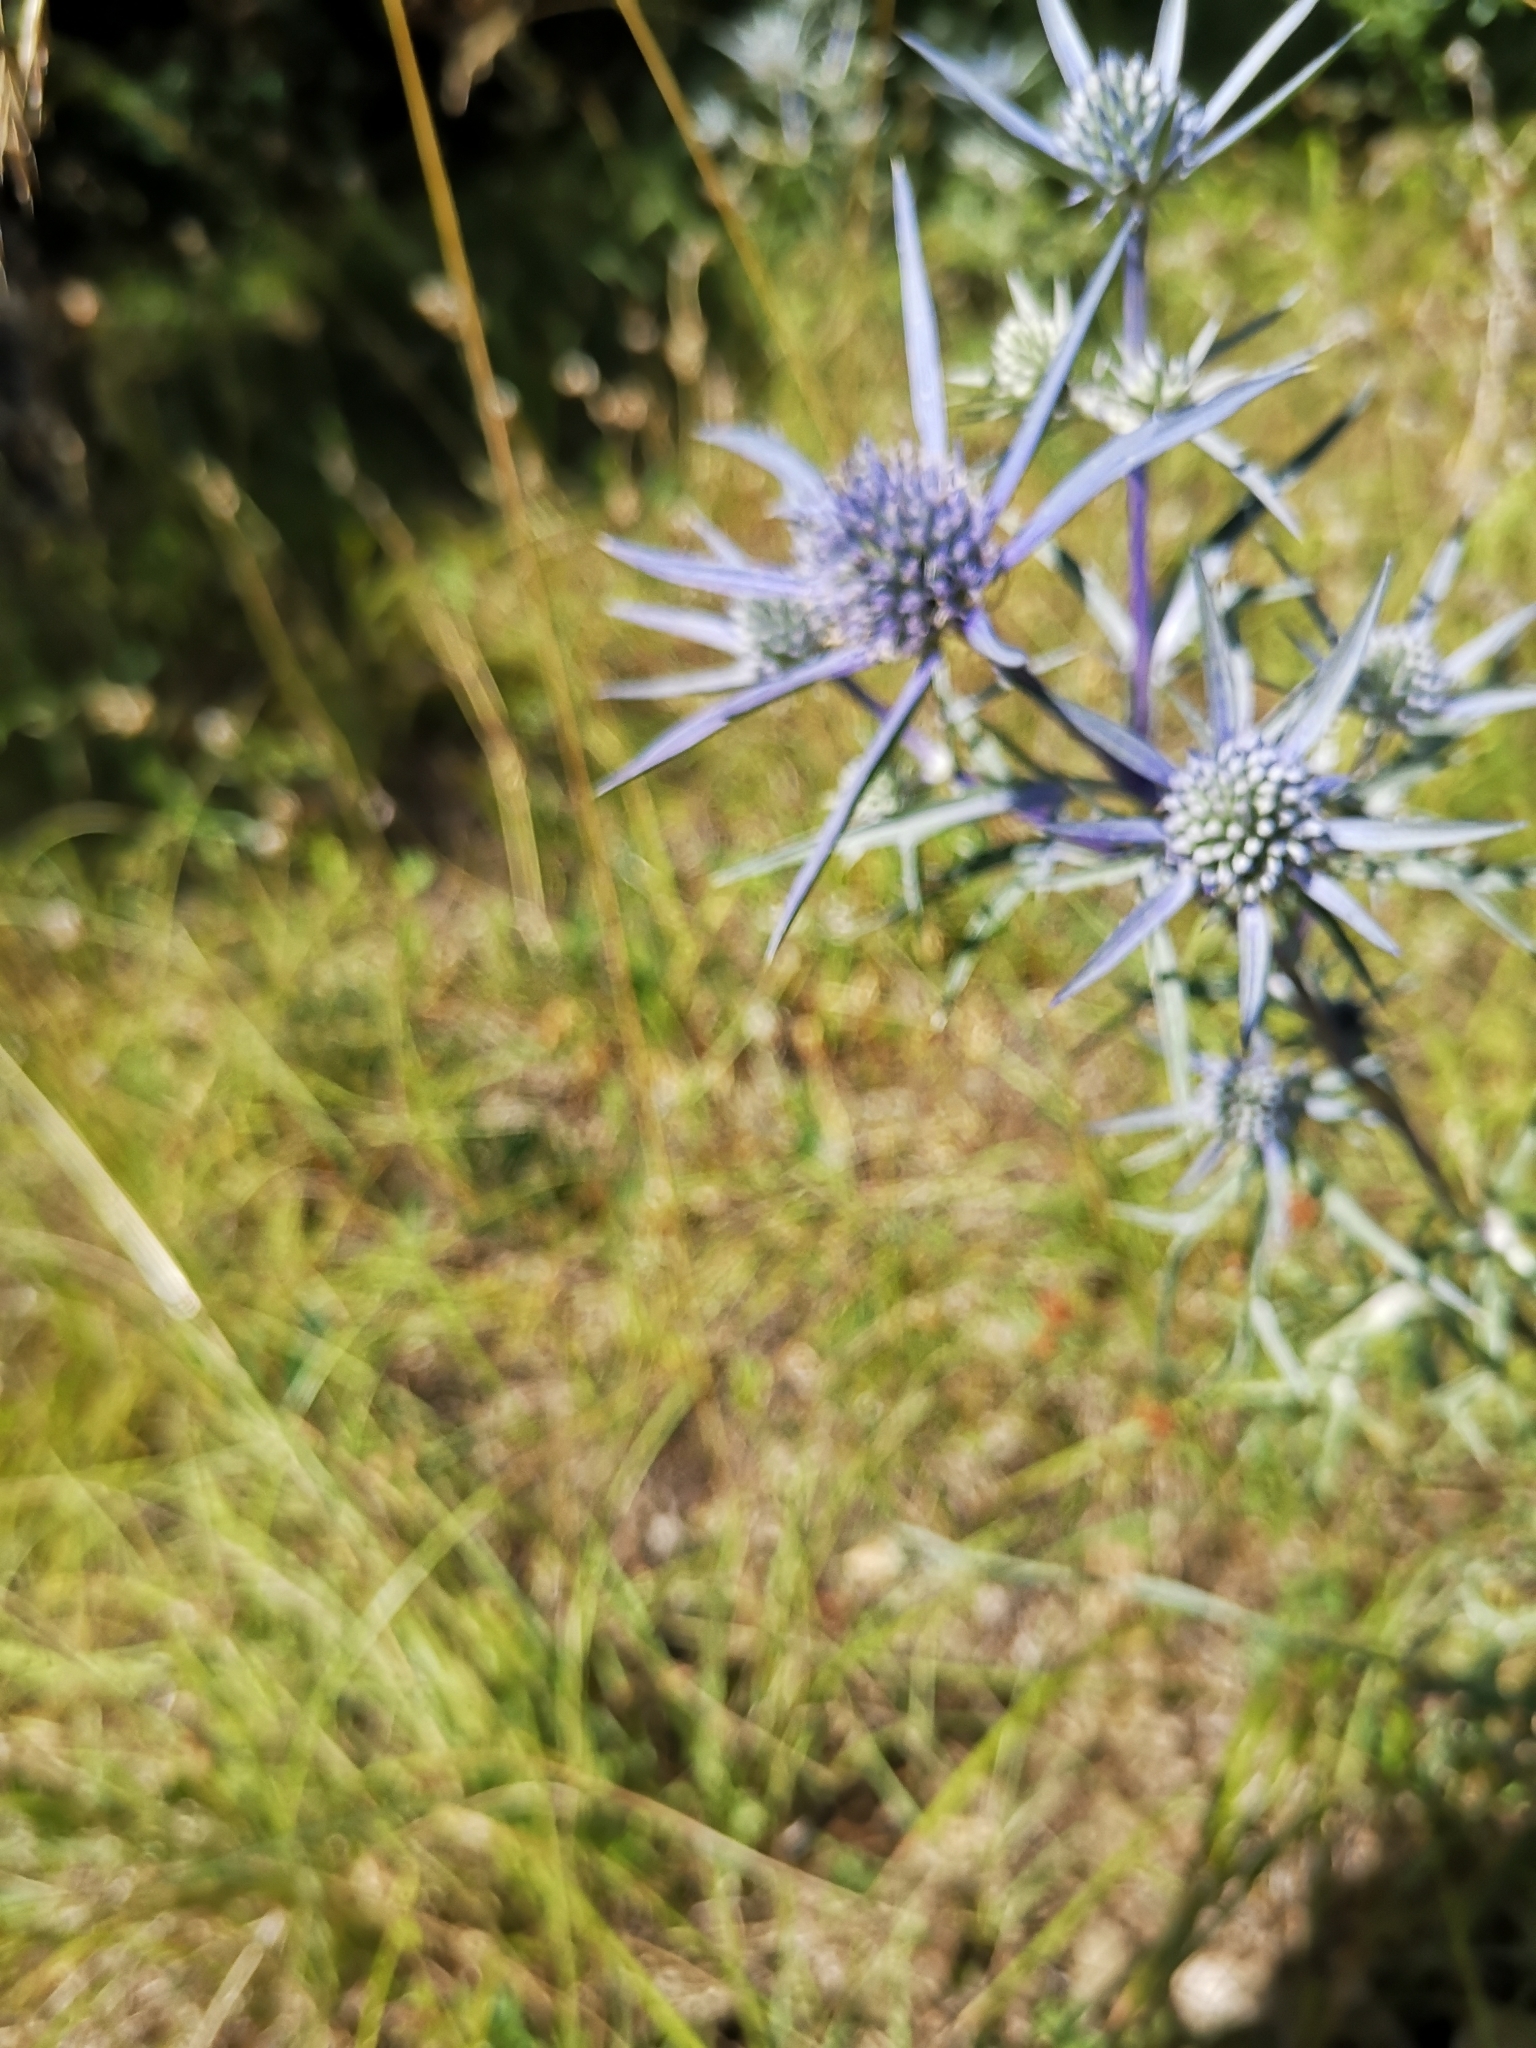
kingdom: Plantae
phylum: Tracheophyta
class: Magnoliopsida
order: Apiales
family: Apiaceae
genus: Eryngium
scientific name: Eryngium amethystinum
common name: Amethyst eryngo
